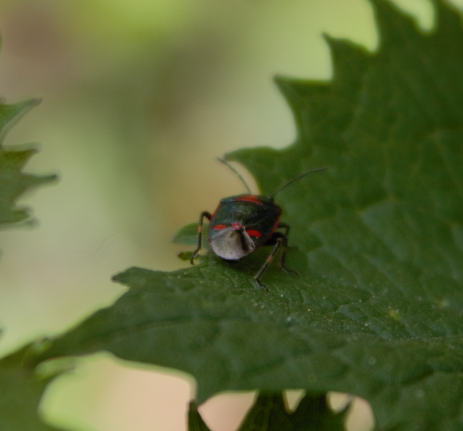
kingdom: Animalia
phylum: Arthropoda
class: Insecta
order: Hemiptera
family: Pentatomidae
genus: Eurydema
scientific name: Eurydema oleracea
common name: Cabbage bug
